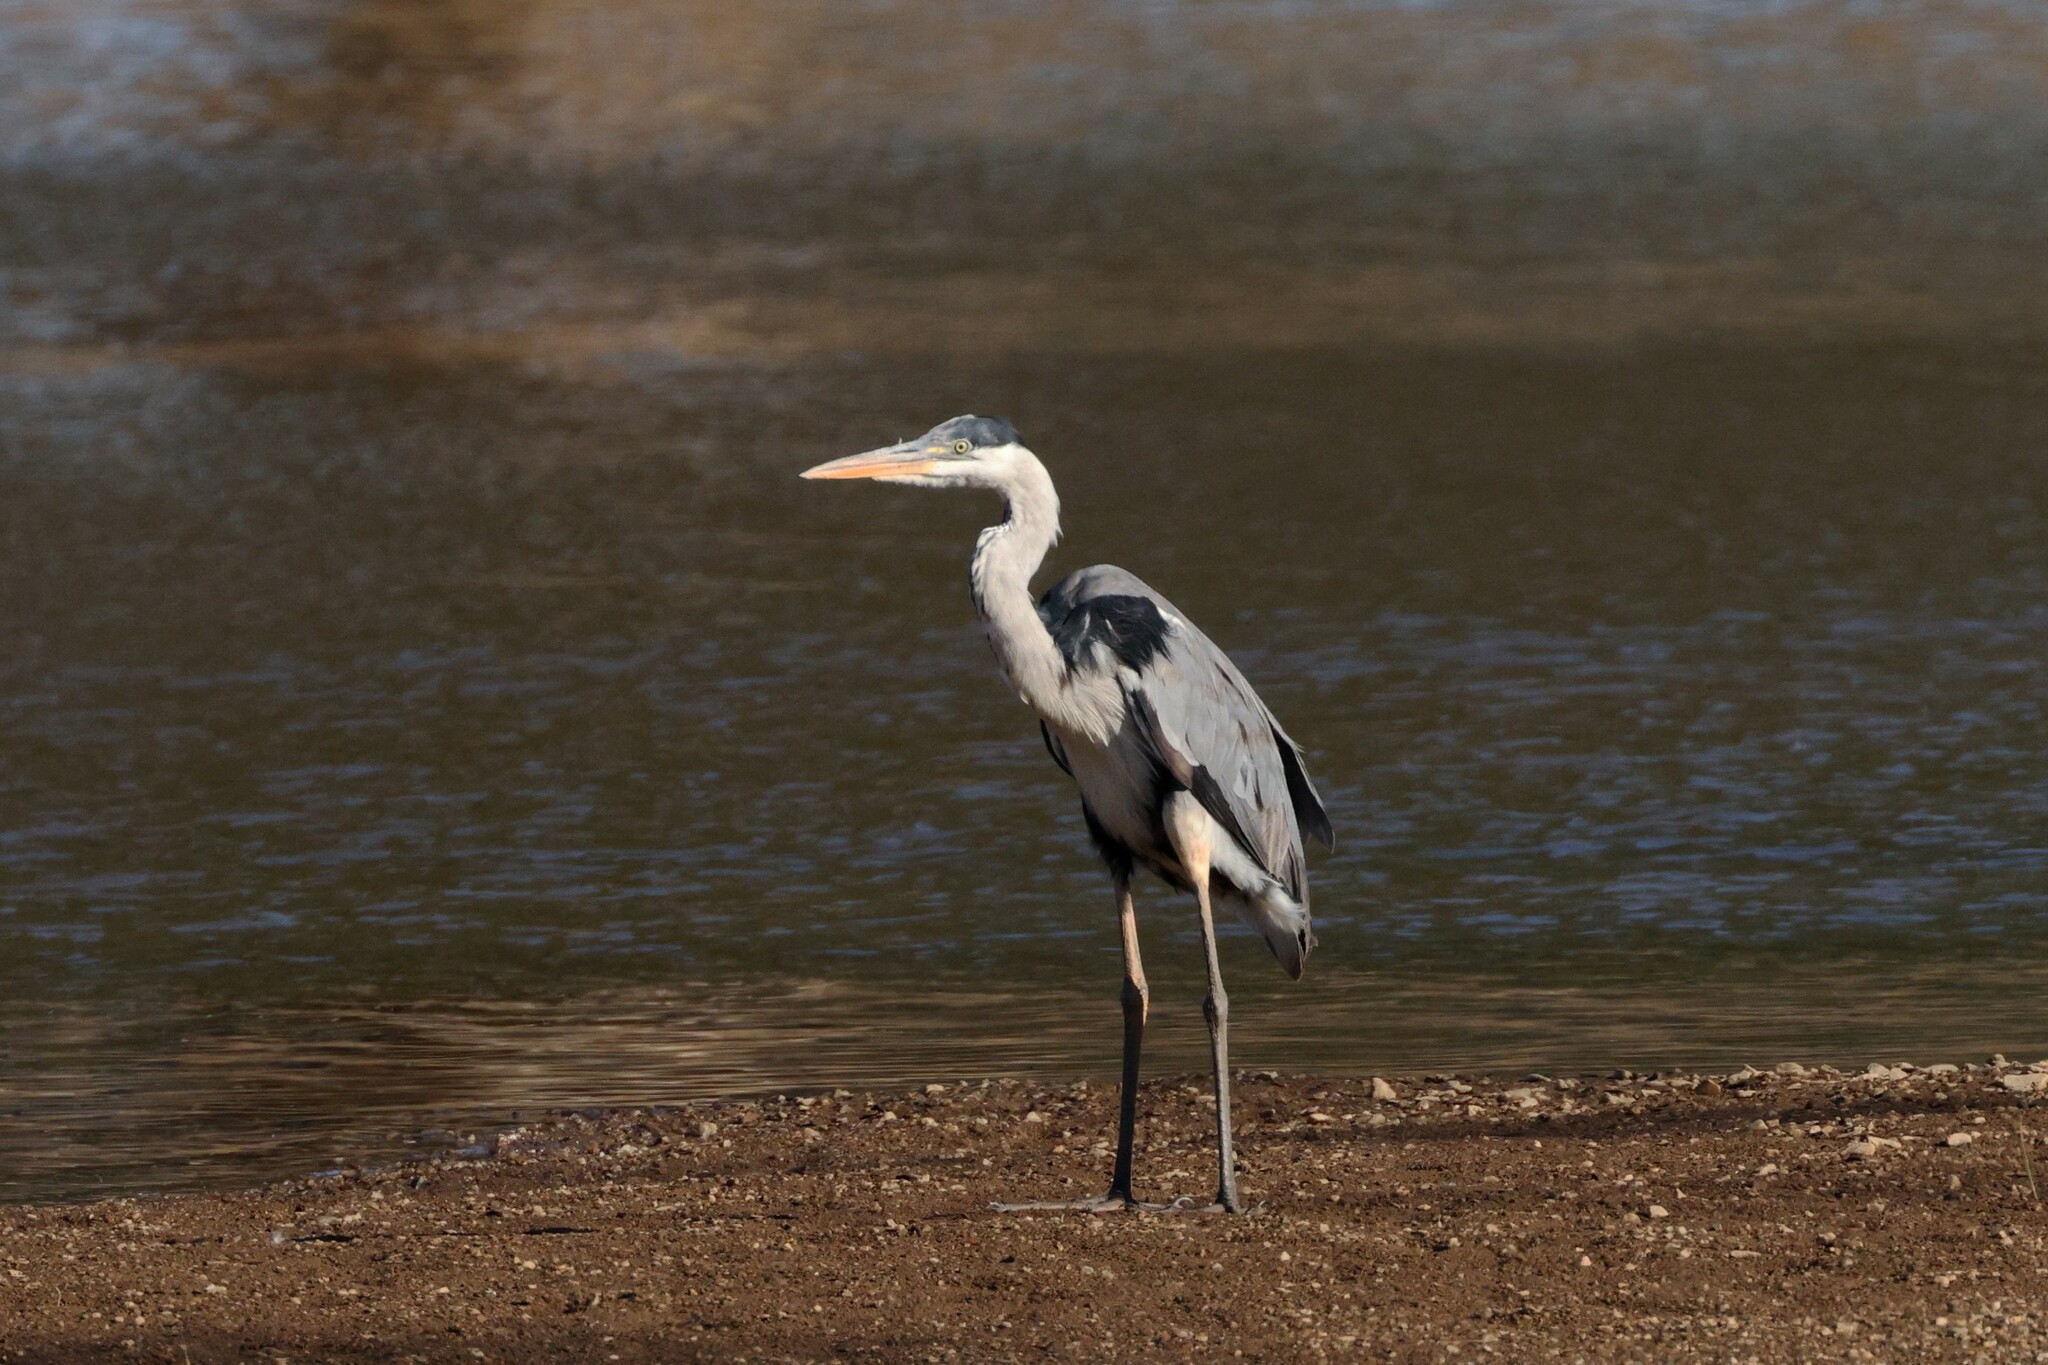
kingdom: Animalia
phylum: Chordata
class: Aves
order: Pelecaniformes
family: Ardeidae
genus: Ardea
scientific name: Ardea cocoi
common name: Cocoi heron
